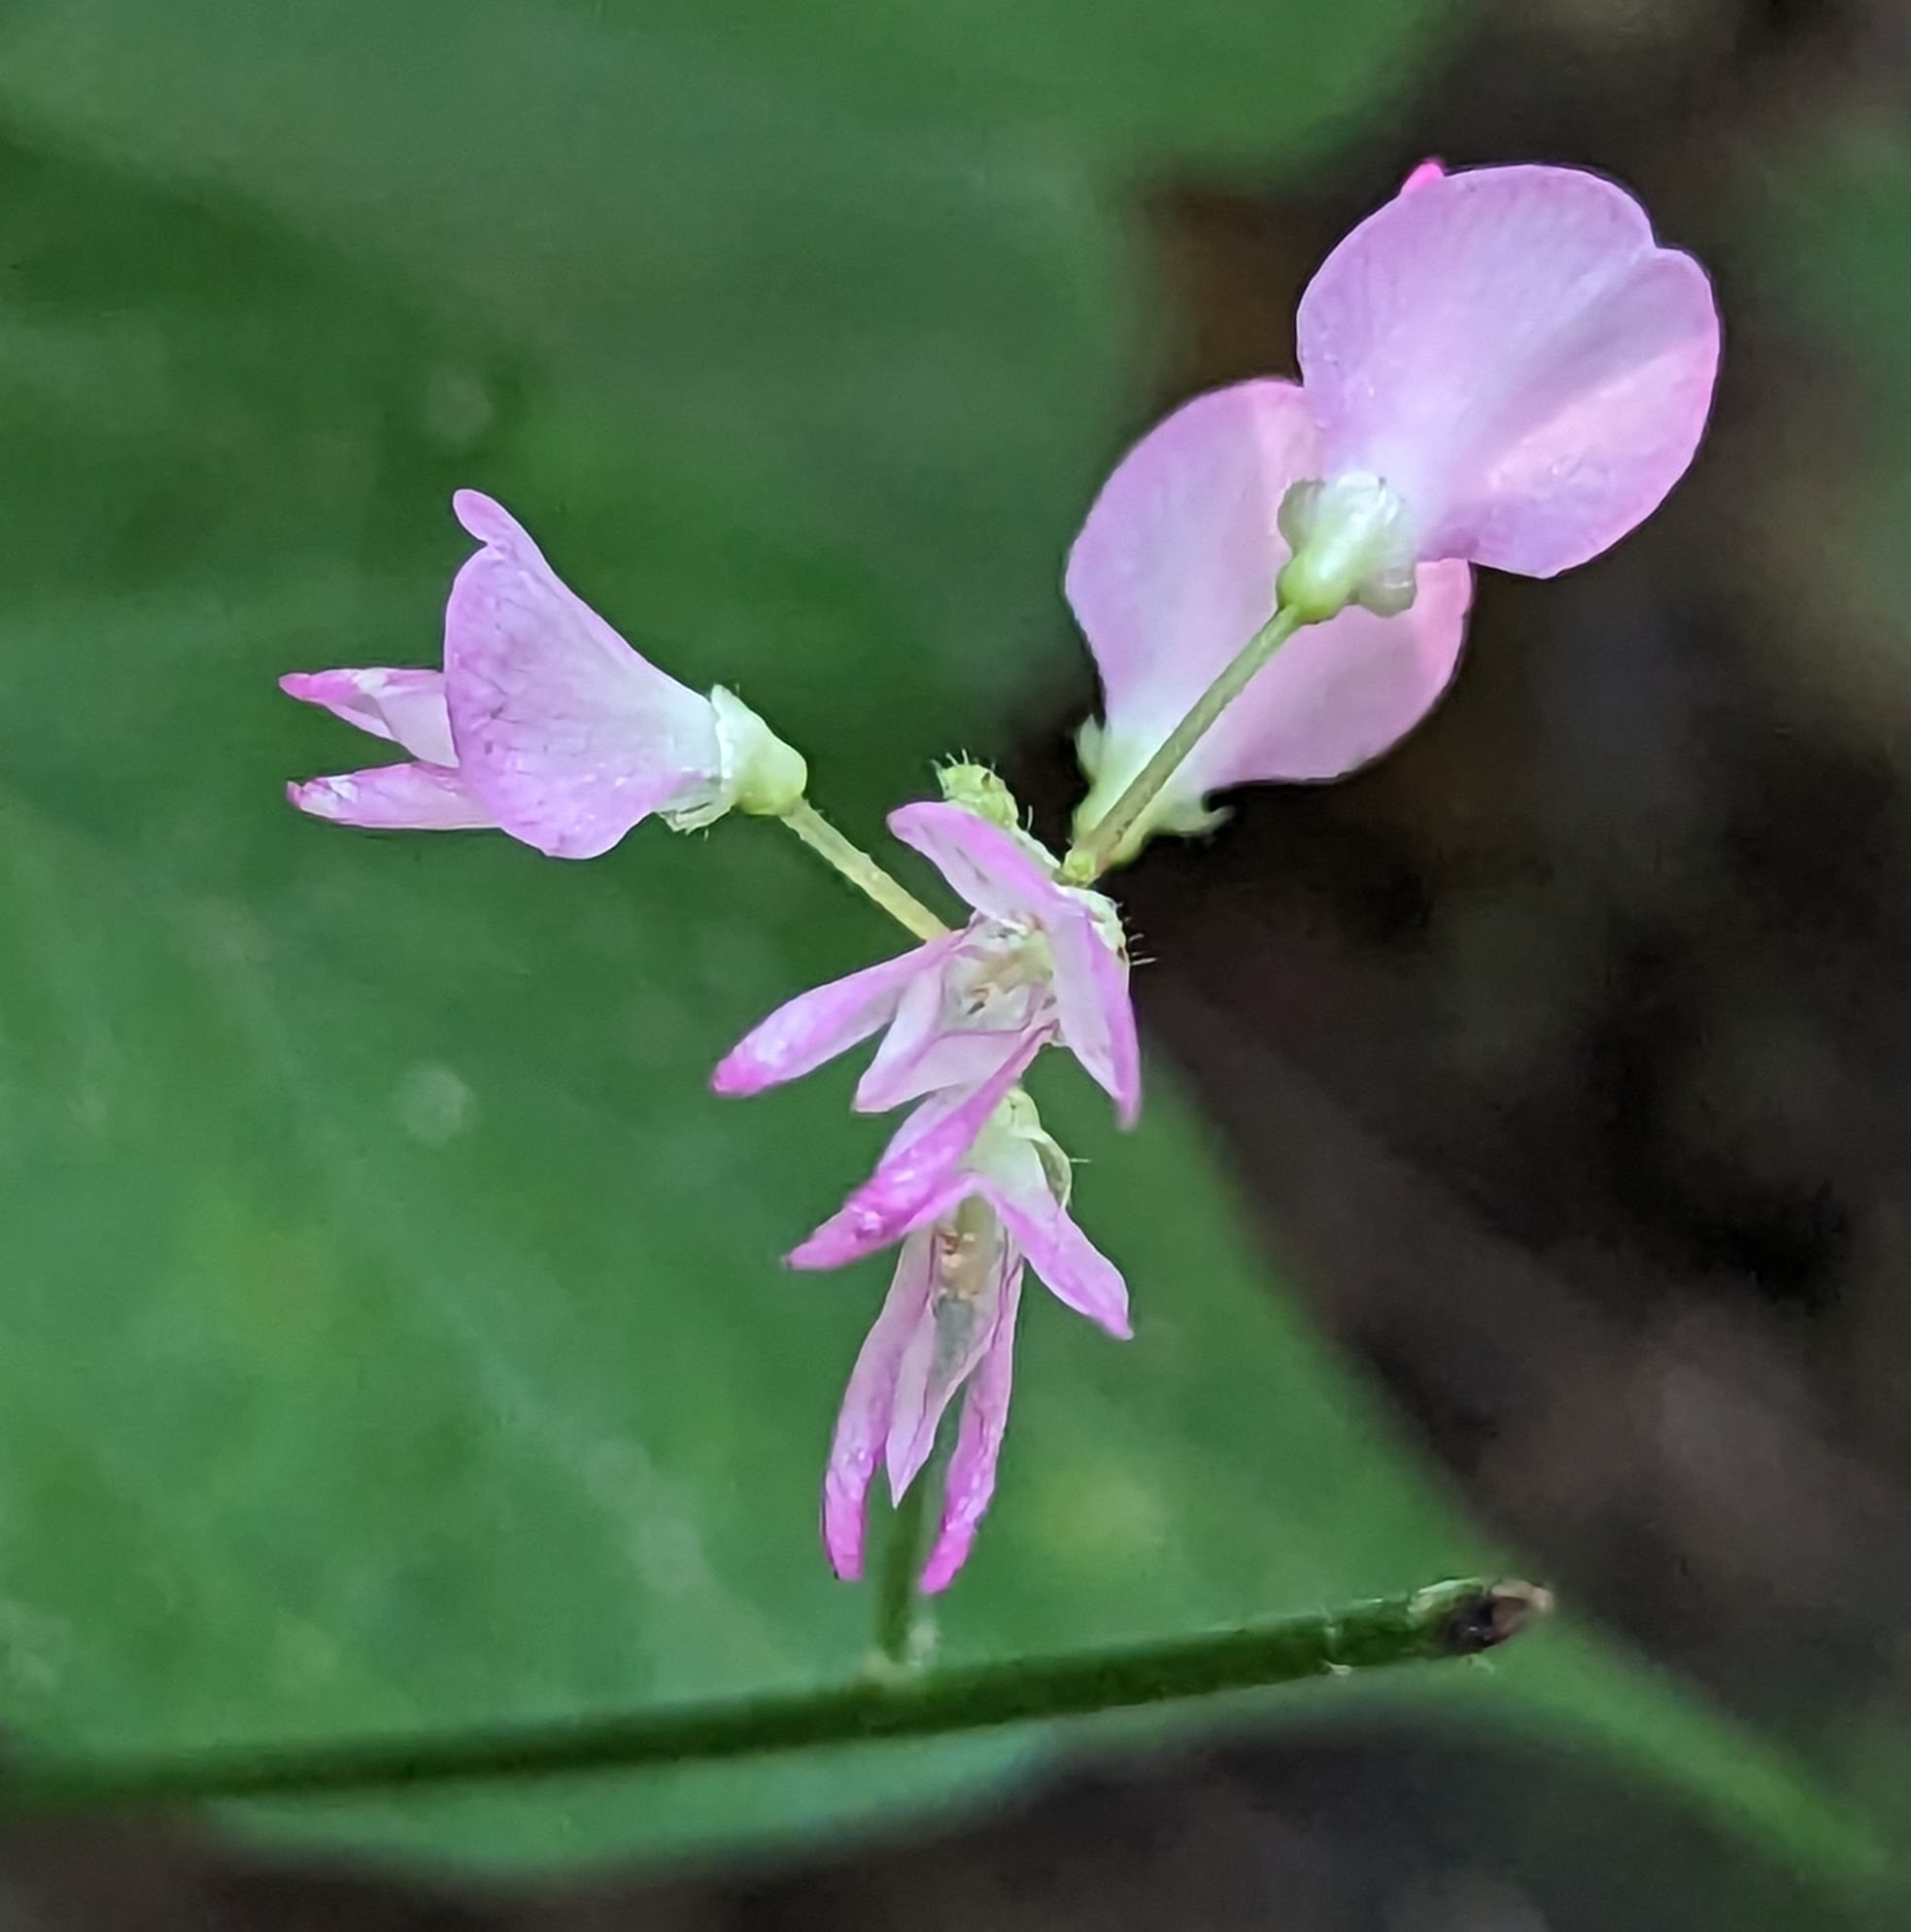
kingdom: Plantae
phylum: Tracheophyta
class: Magnoliopsida
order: Fabales
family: Fabaceae
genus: Hylodesmum
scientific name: Hylodesmum glutinosum
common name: Clustered-leaved tick-trefoil
